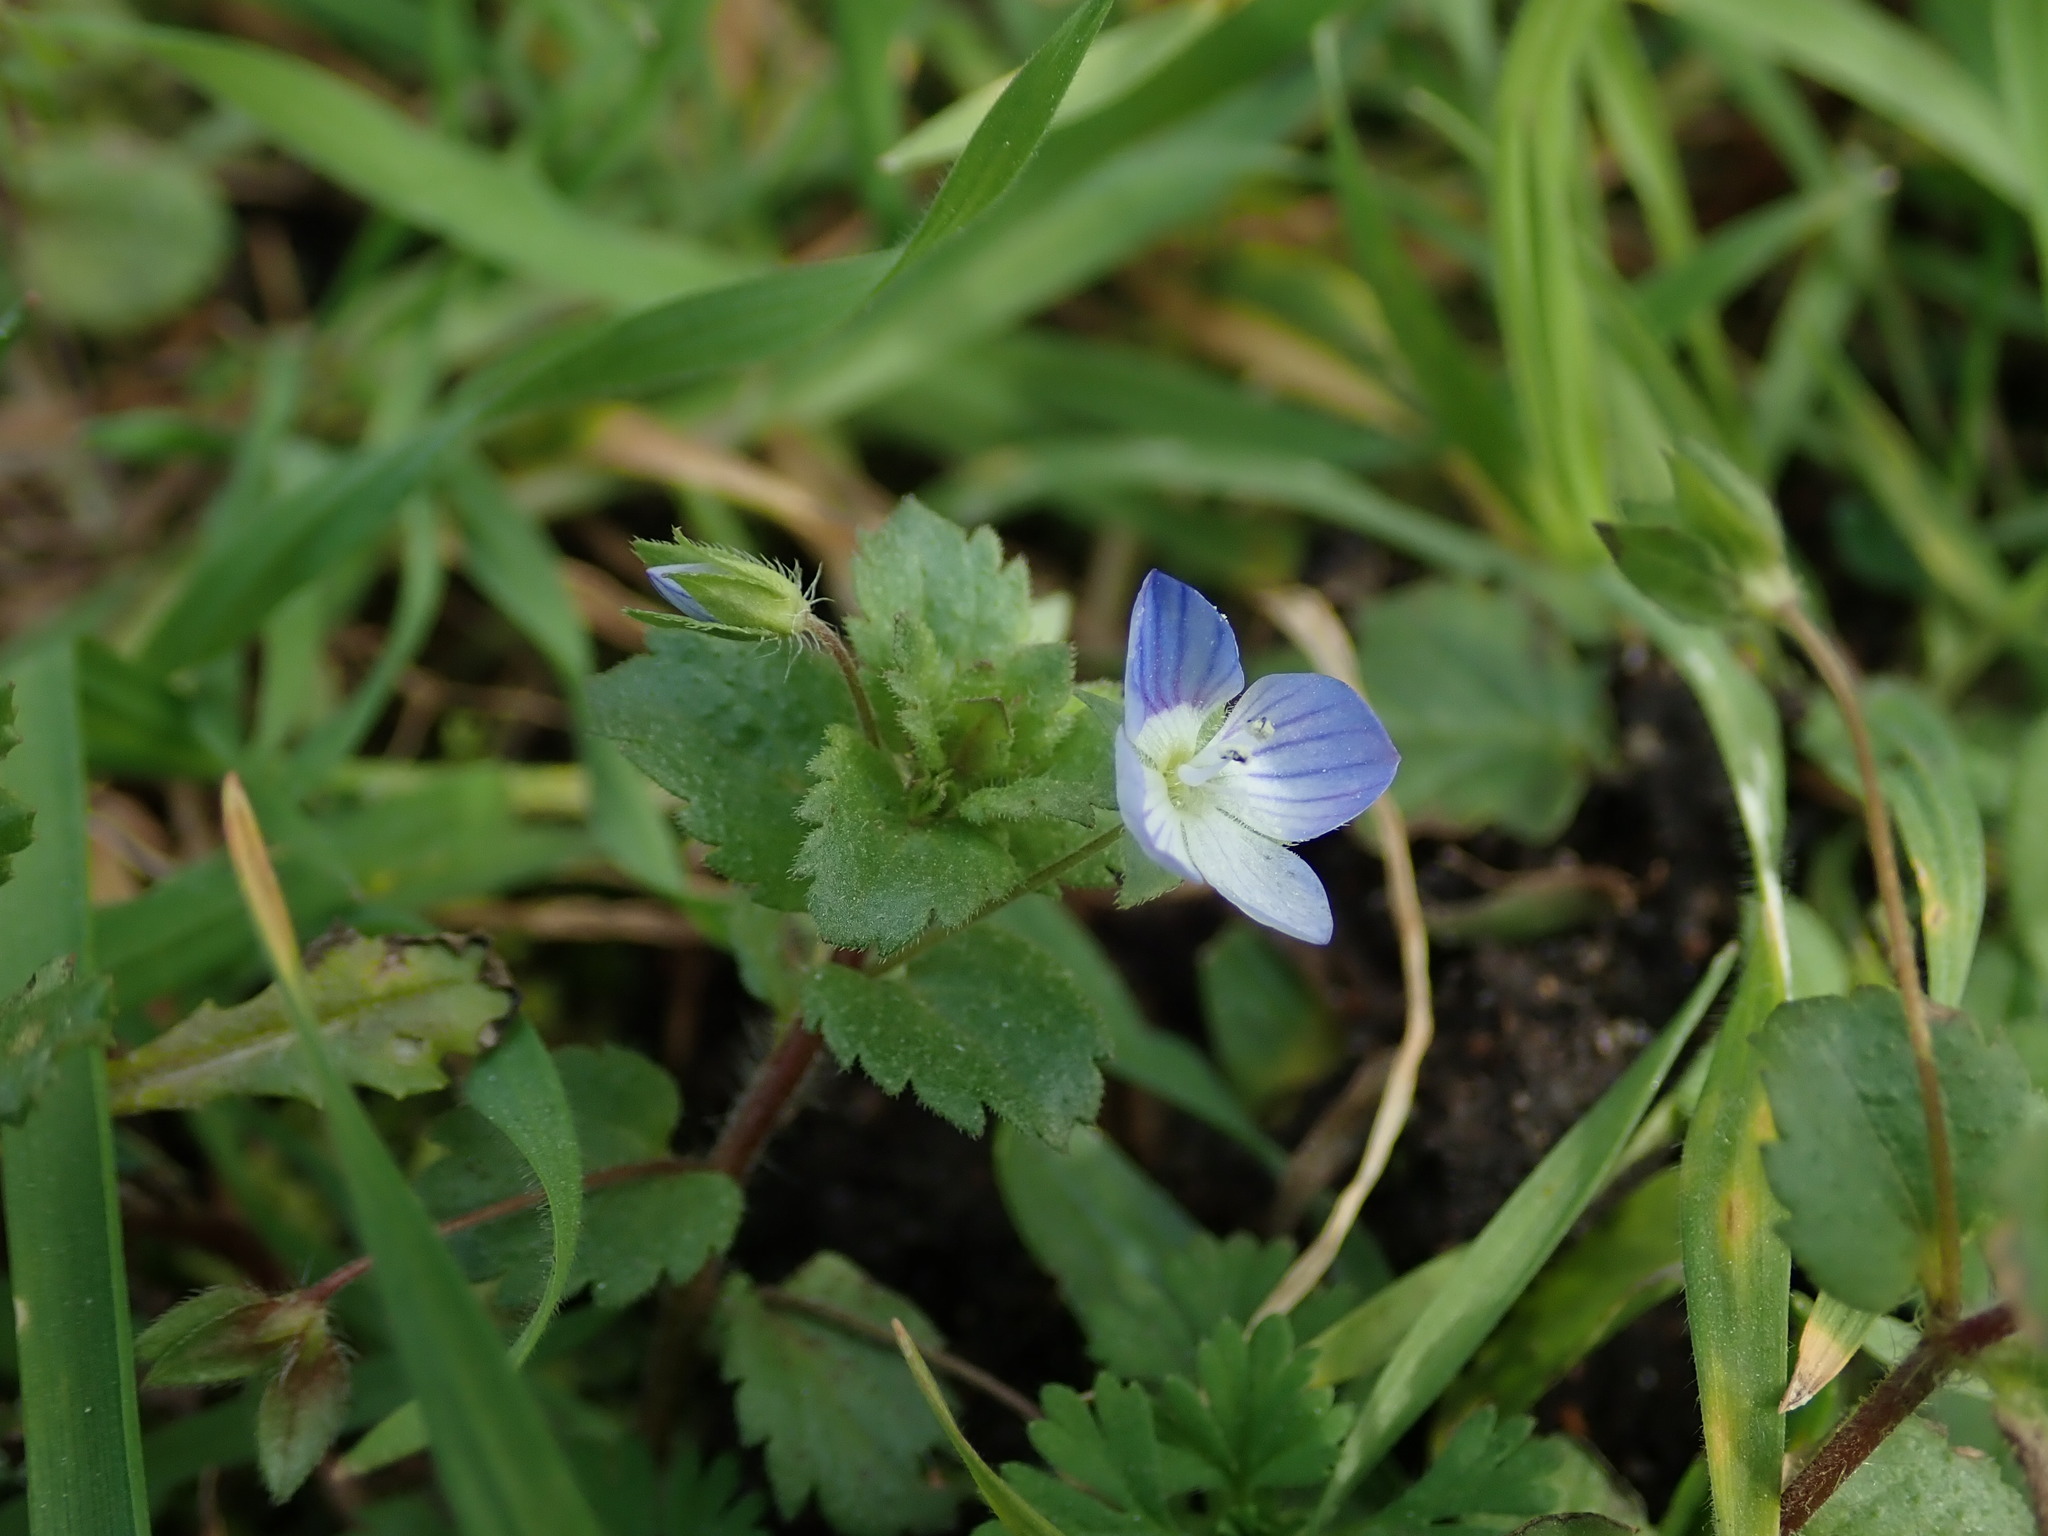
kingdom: Plantae
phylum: Tracheophyta
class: Magnoliopsida
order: Lamiales
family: Plantaginaceae
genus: Veronica
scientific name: Veronica persica
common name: Common field-speedwell
